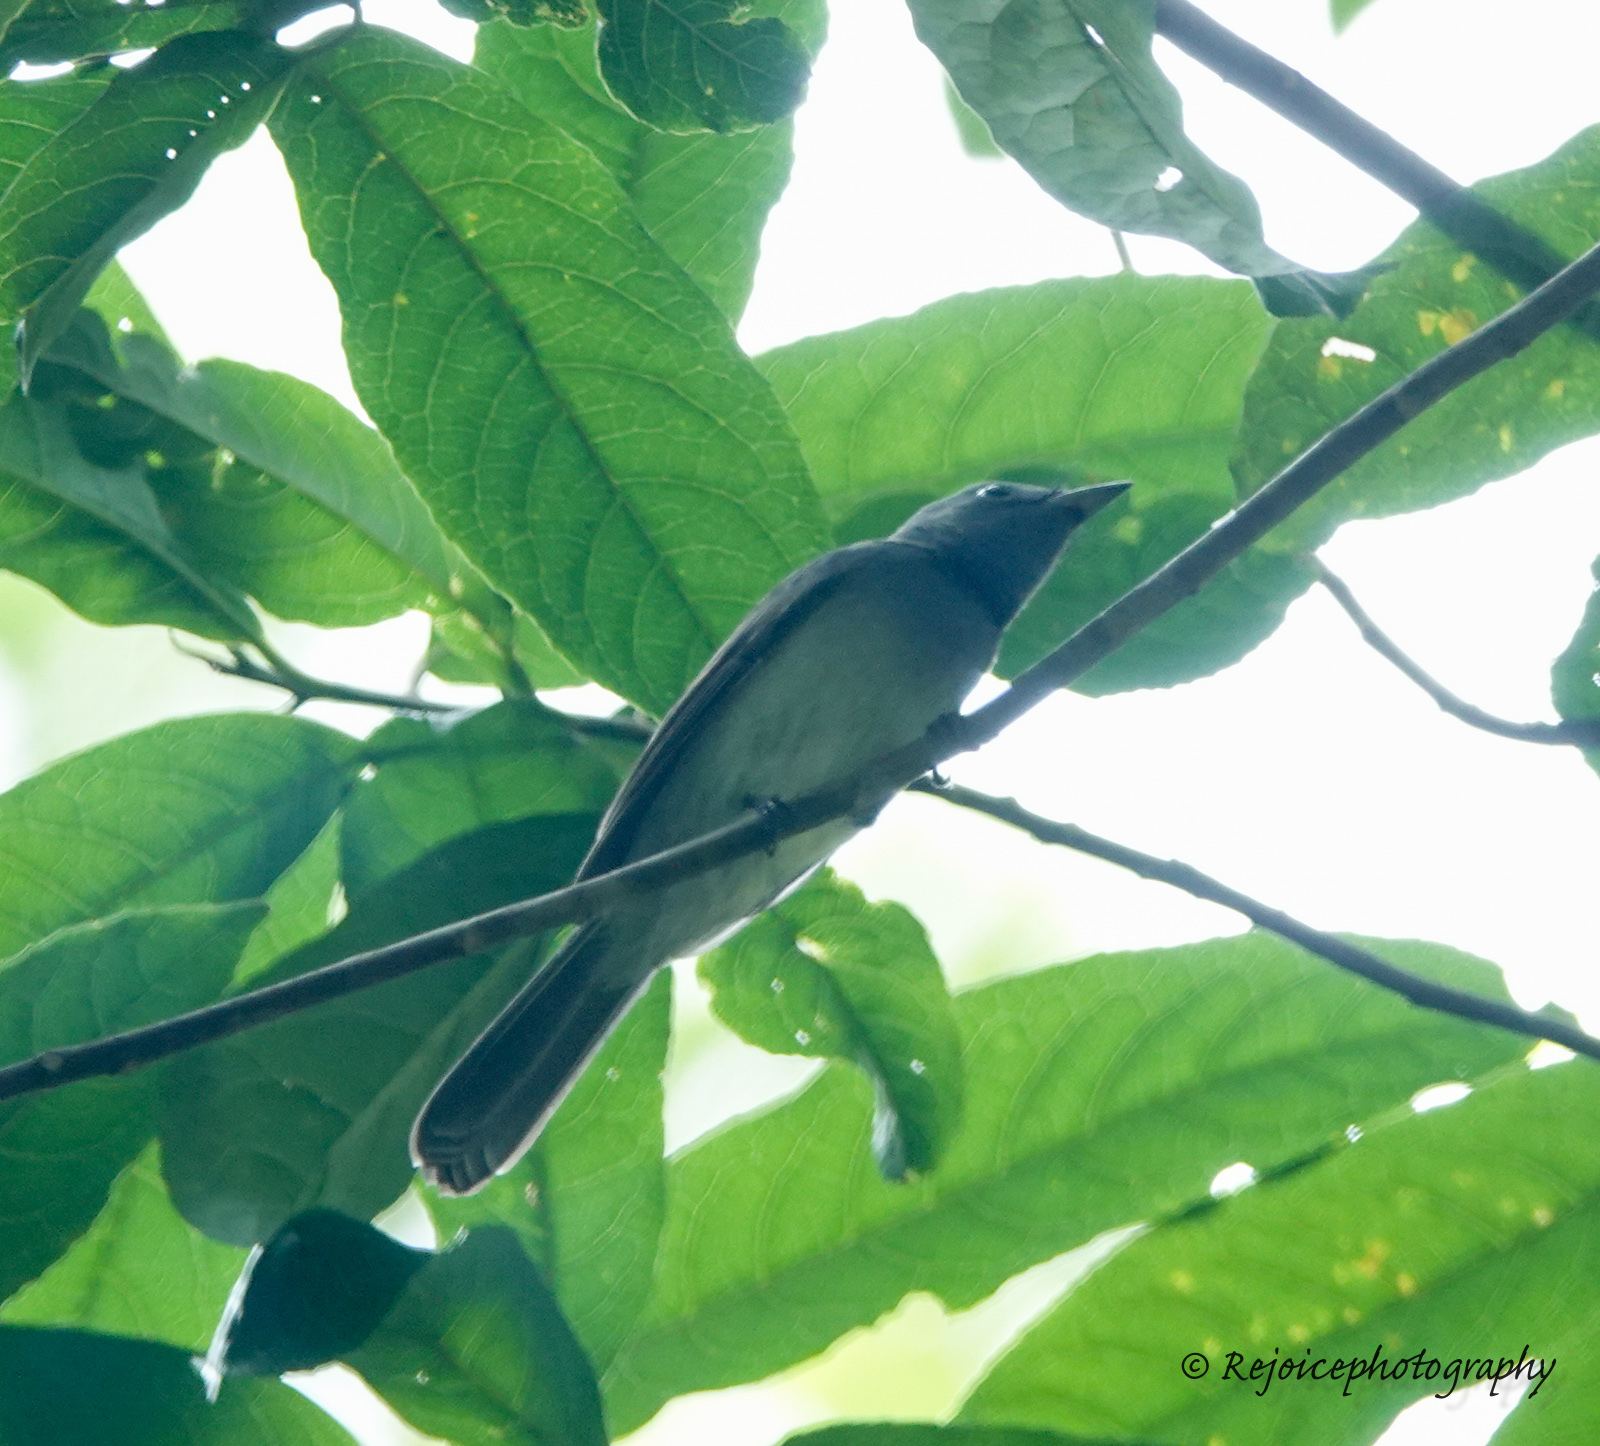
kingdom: Animalia
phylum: Chordata
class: Aves
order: Passeriformes
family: Monarchidae
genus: Hypothymis
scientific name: Hypothymis azurea
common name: Black-naped monarch
